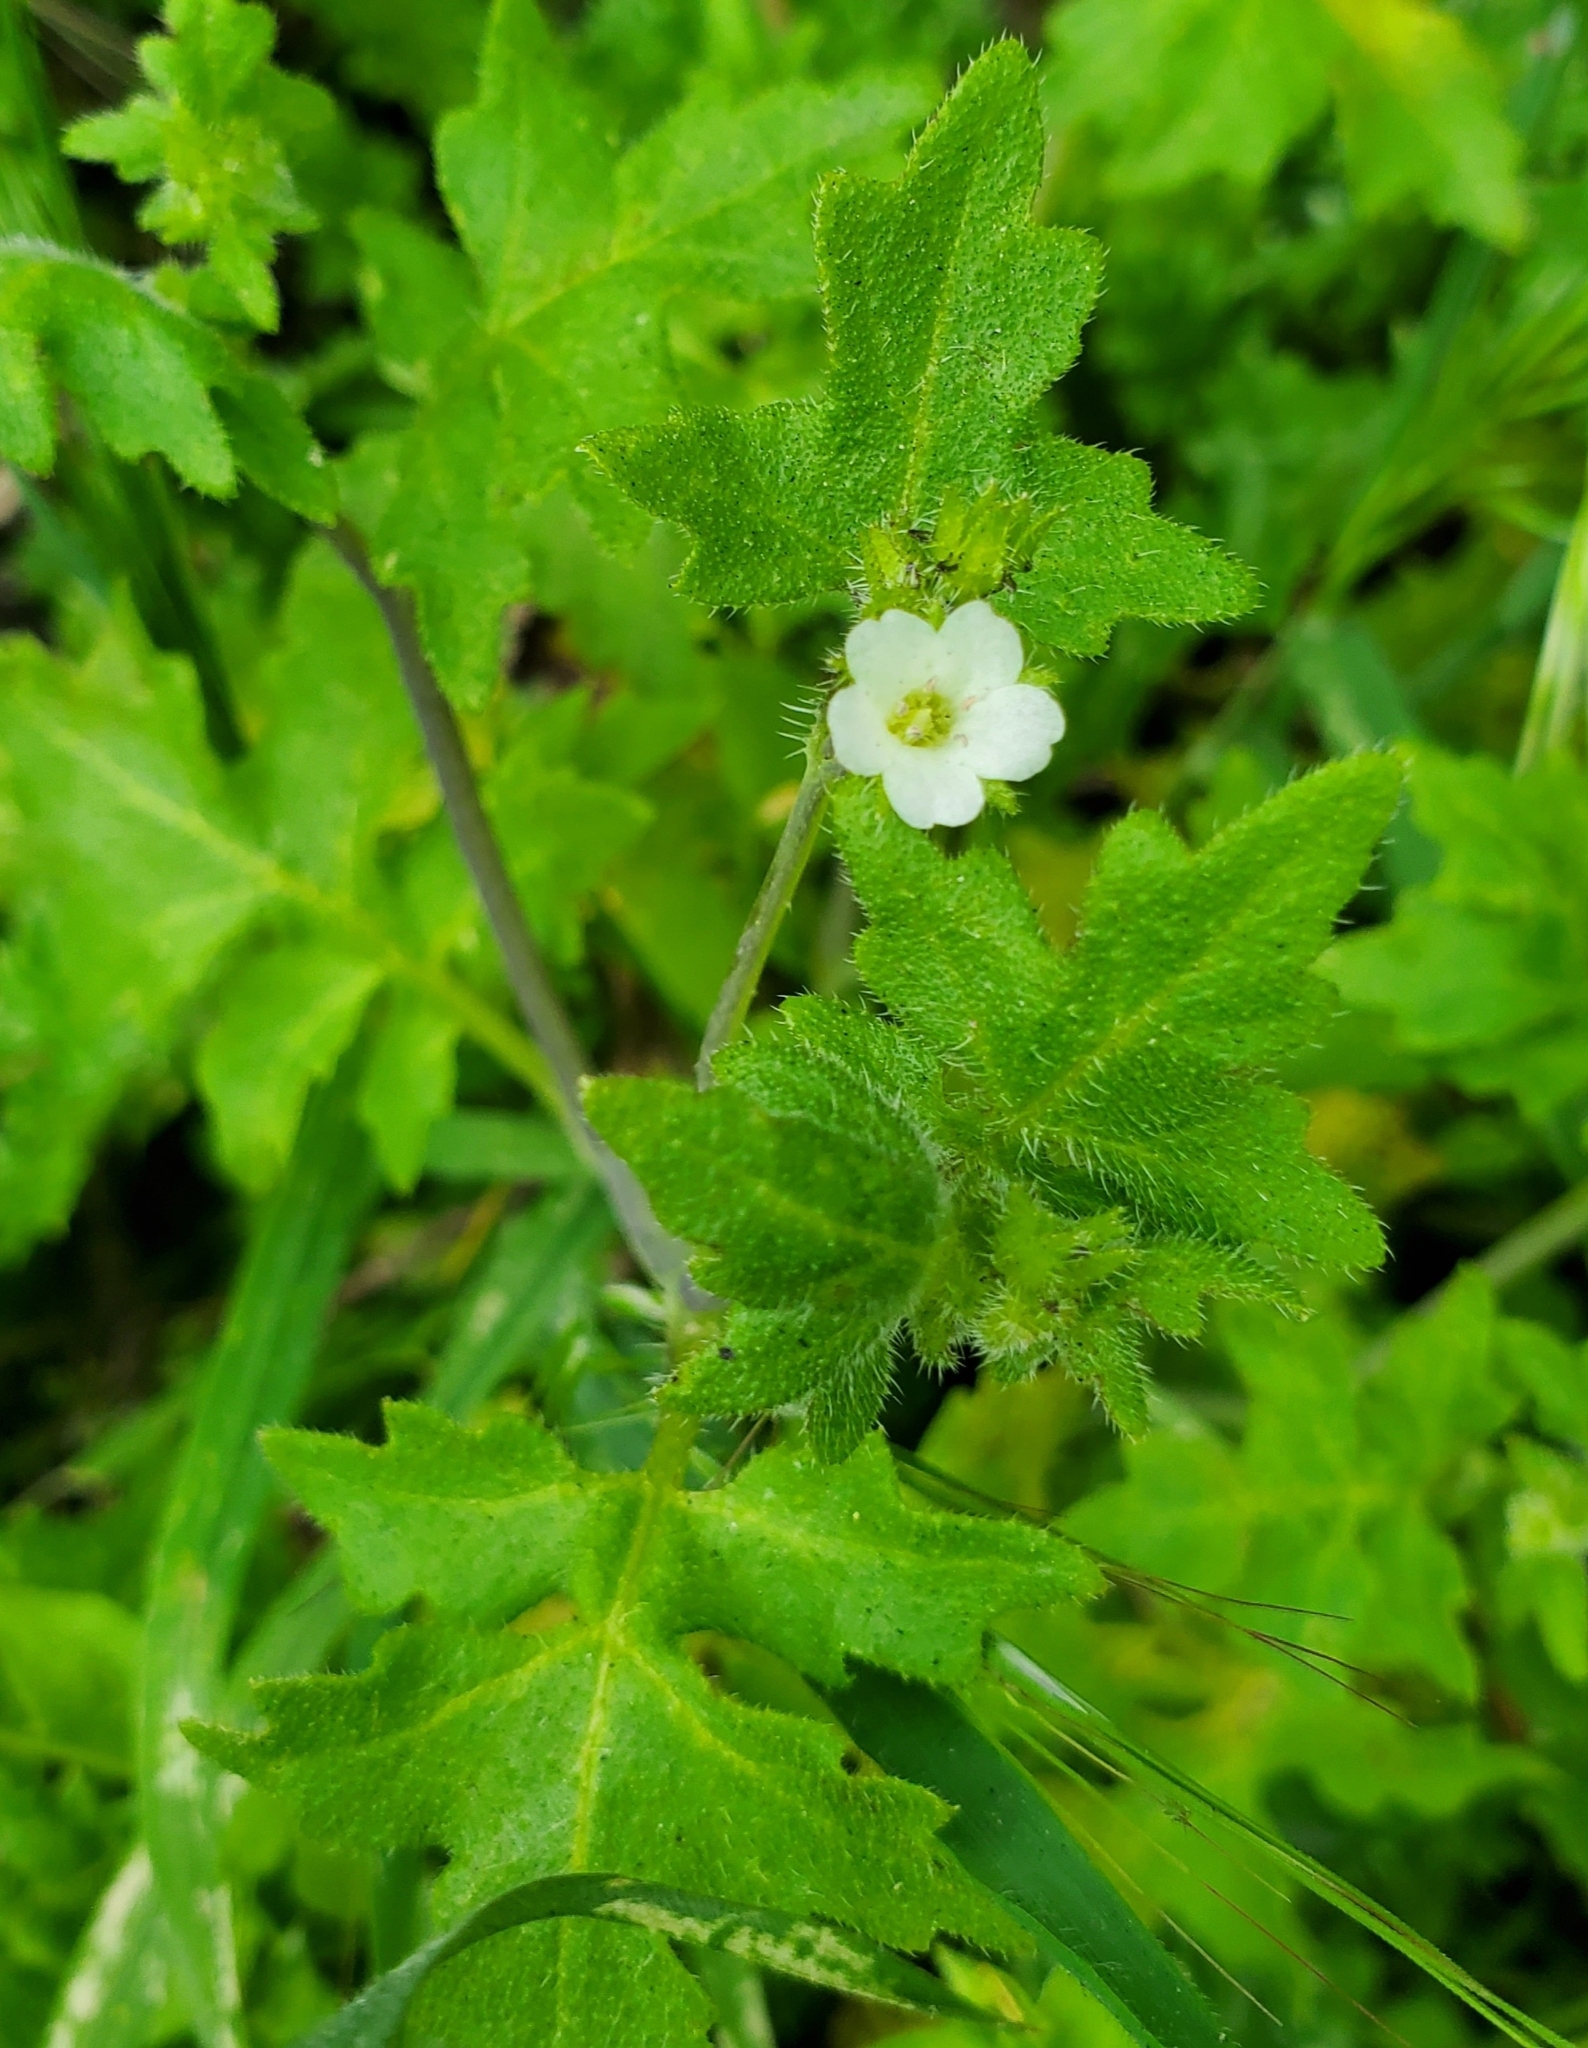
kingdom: Plantae
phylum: Tracheophyta
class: Magnoliopsida
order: Boraginales
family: Hydrophyllaceae
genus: Pholistoma
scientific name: Pholistoma racemosum
